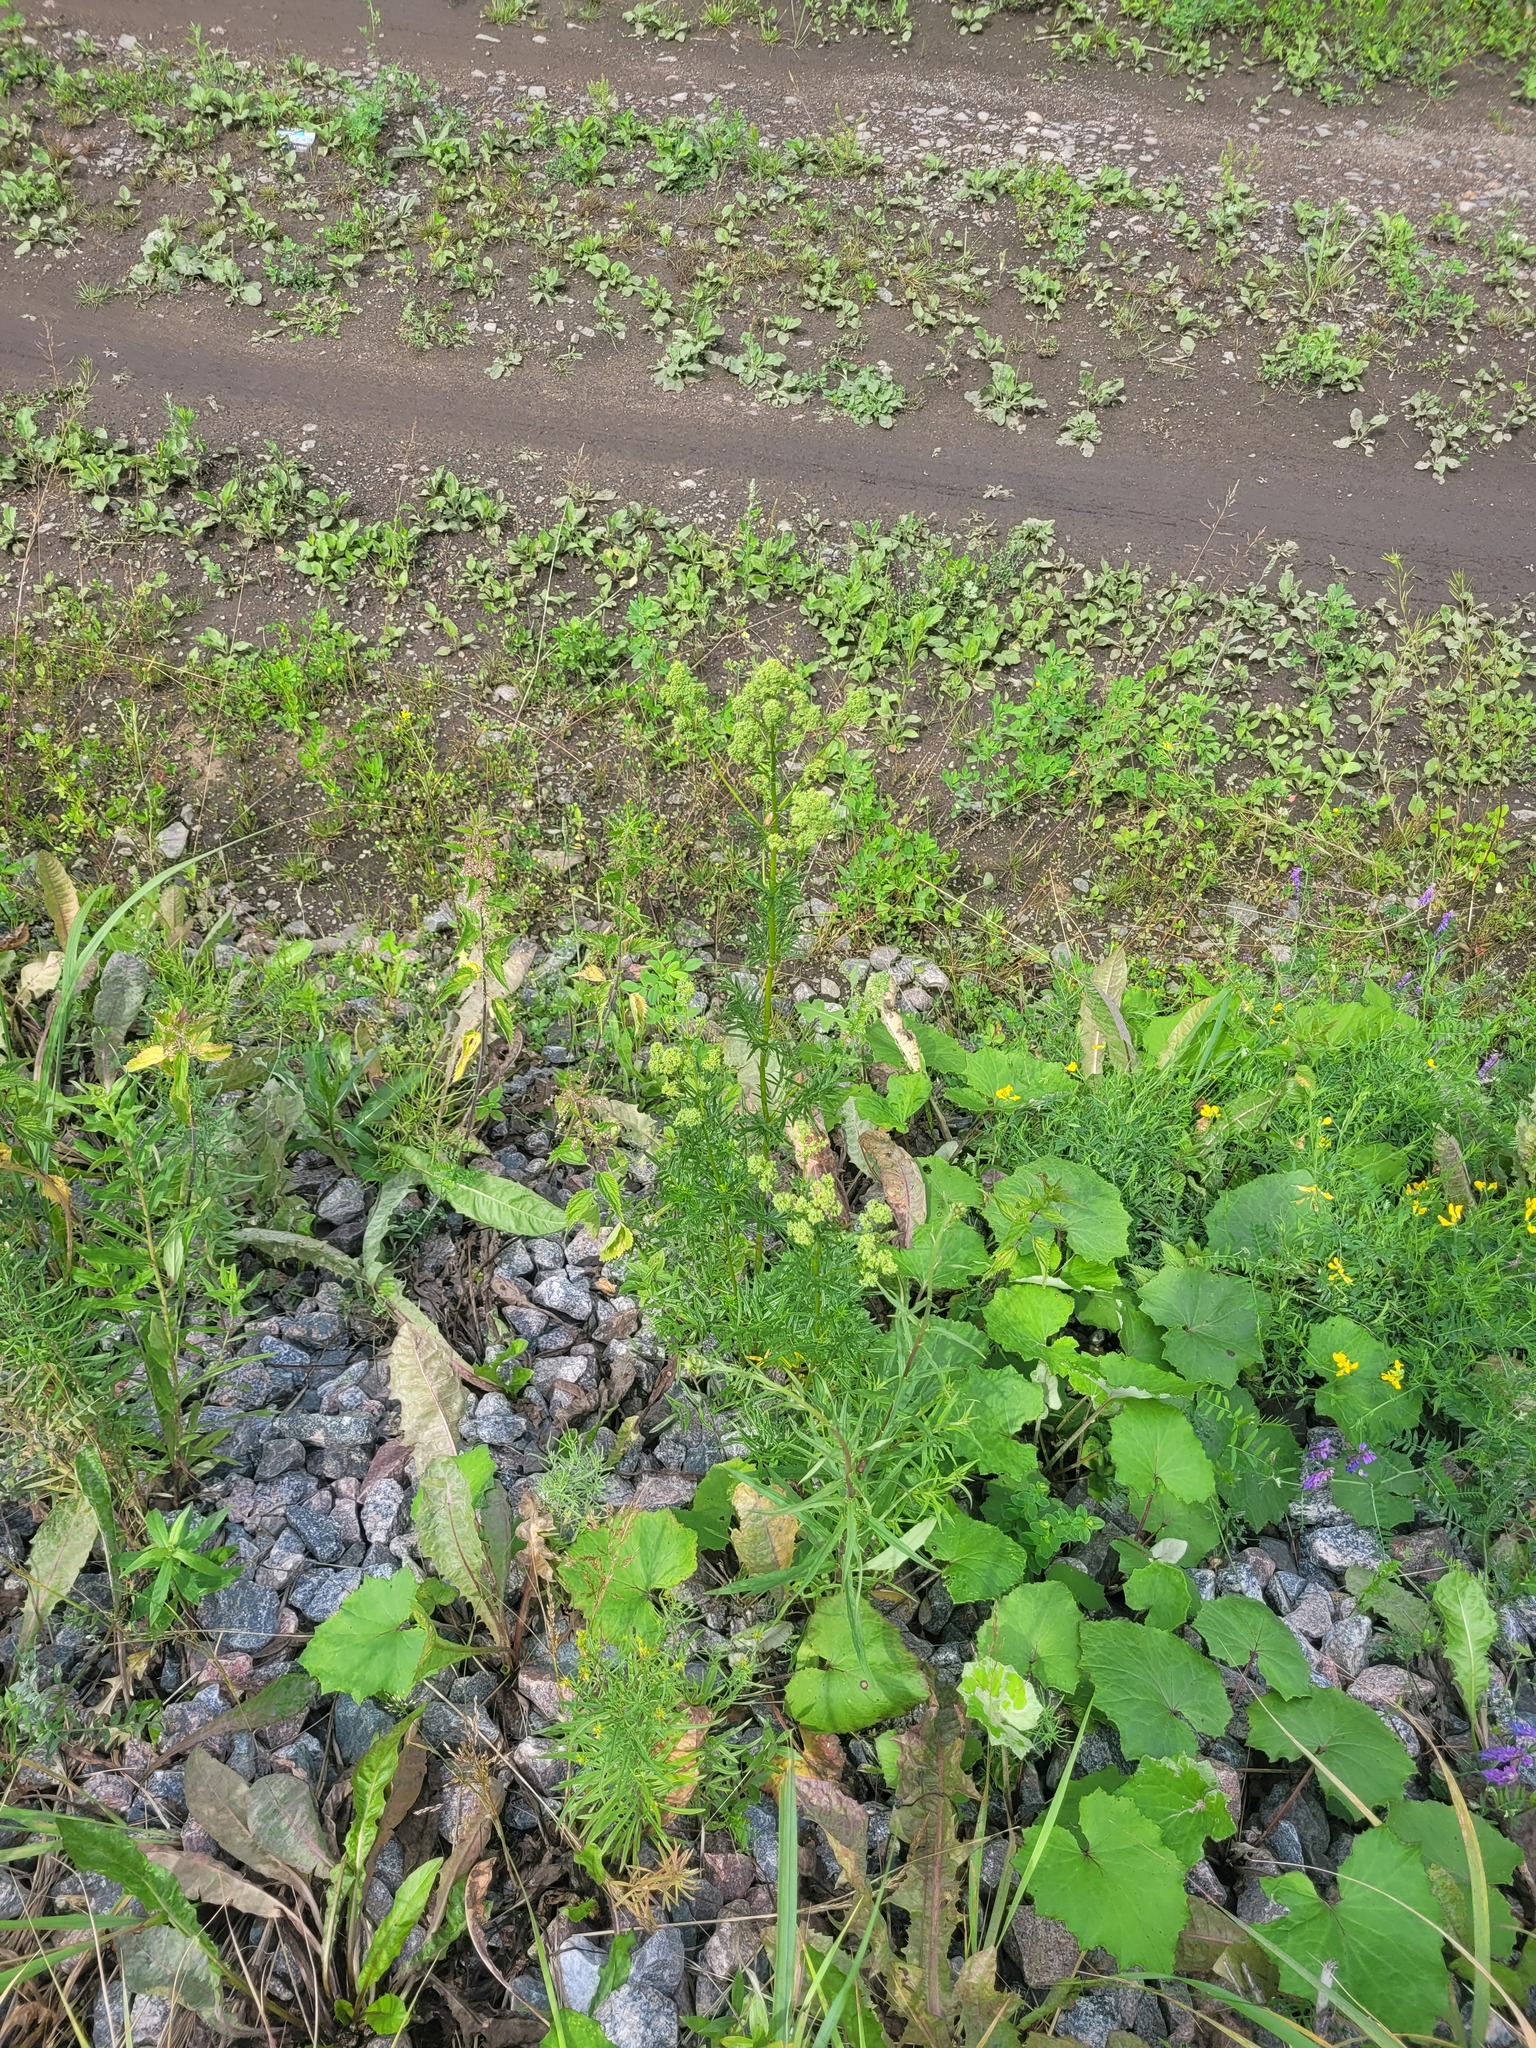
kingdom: Plantae
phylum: Tracheophyta
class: Magnoliopsida
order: Ranunculales
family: Ranunculaceae
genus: Thalictrum
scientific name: Thalictrum lucidum
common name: Shining meadow-rue
